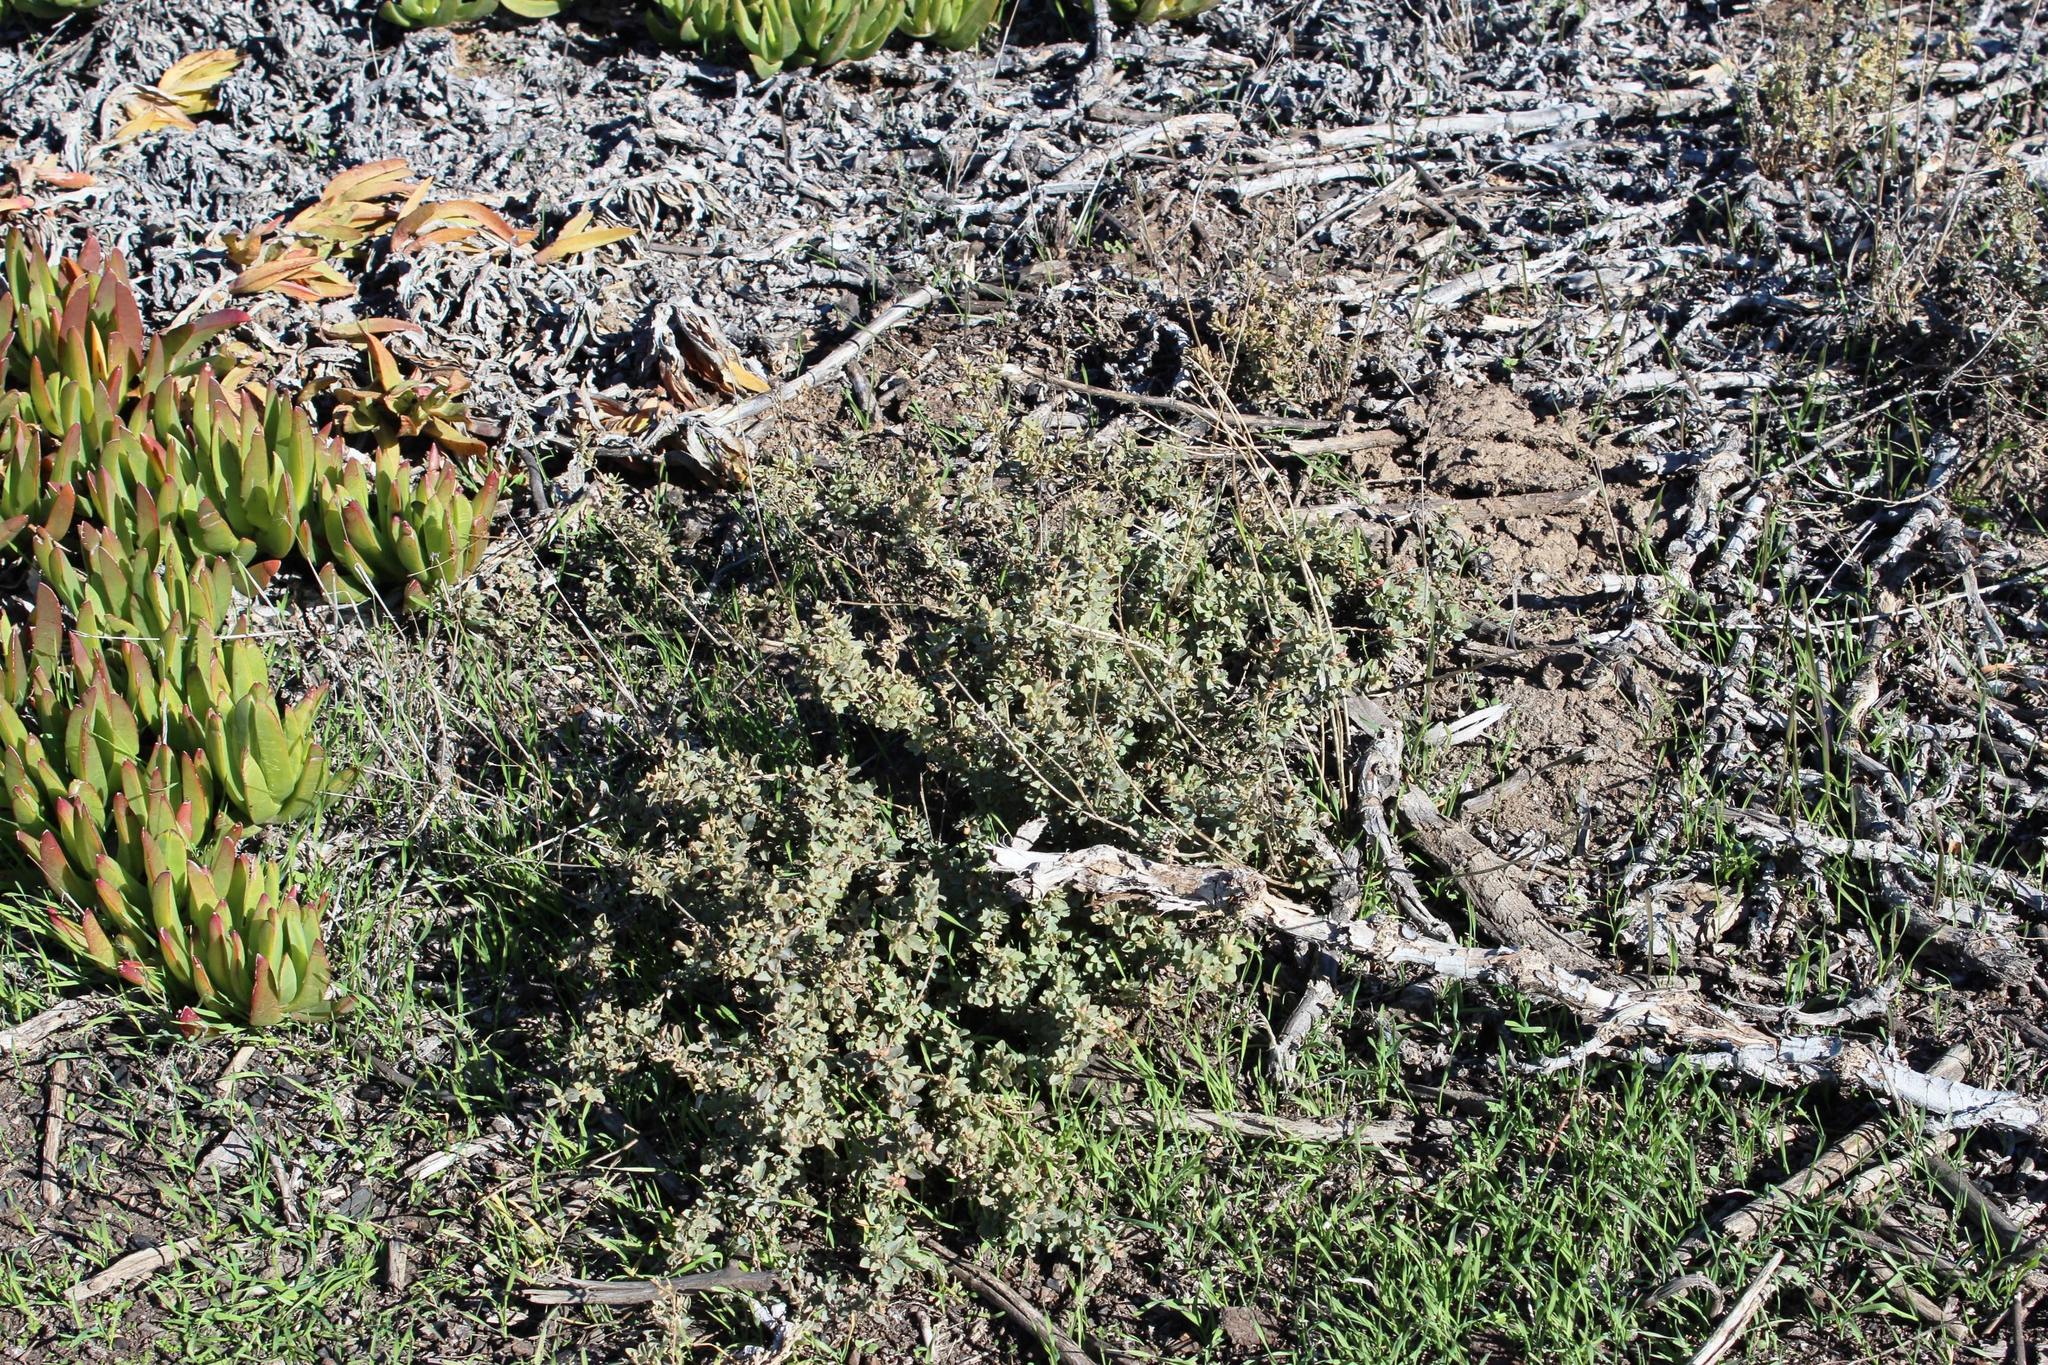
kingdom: Plantae
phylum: Tracheophyta
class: Magnoliopsida
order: Caryophyllales
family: Amaranthaceae
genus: Atriplex
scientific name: Atriplex semibaccata
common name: Australian saltbush
